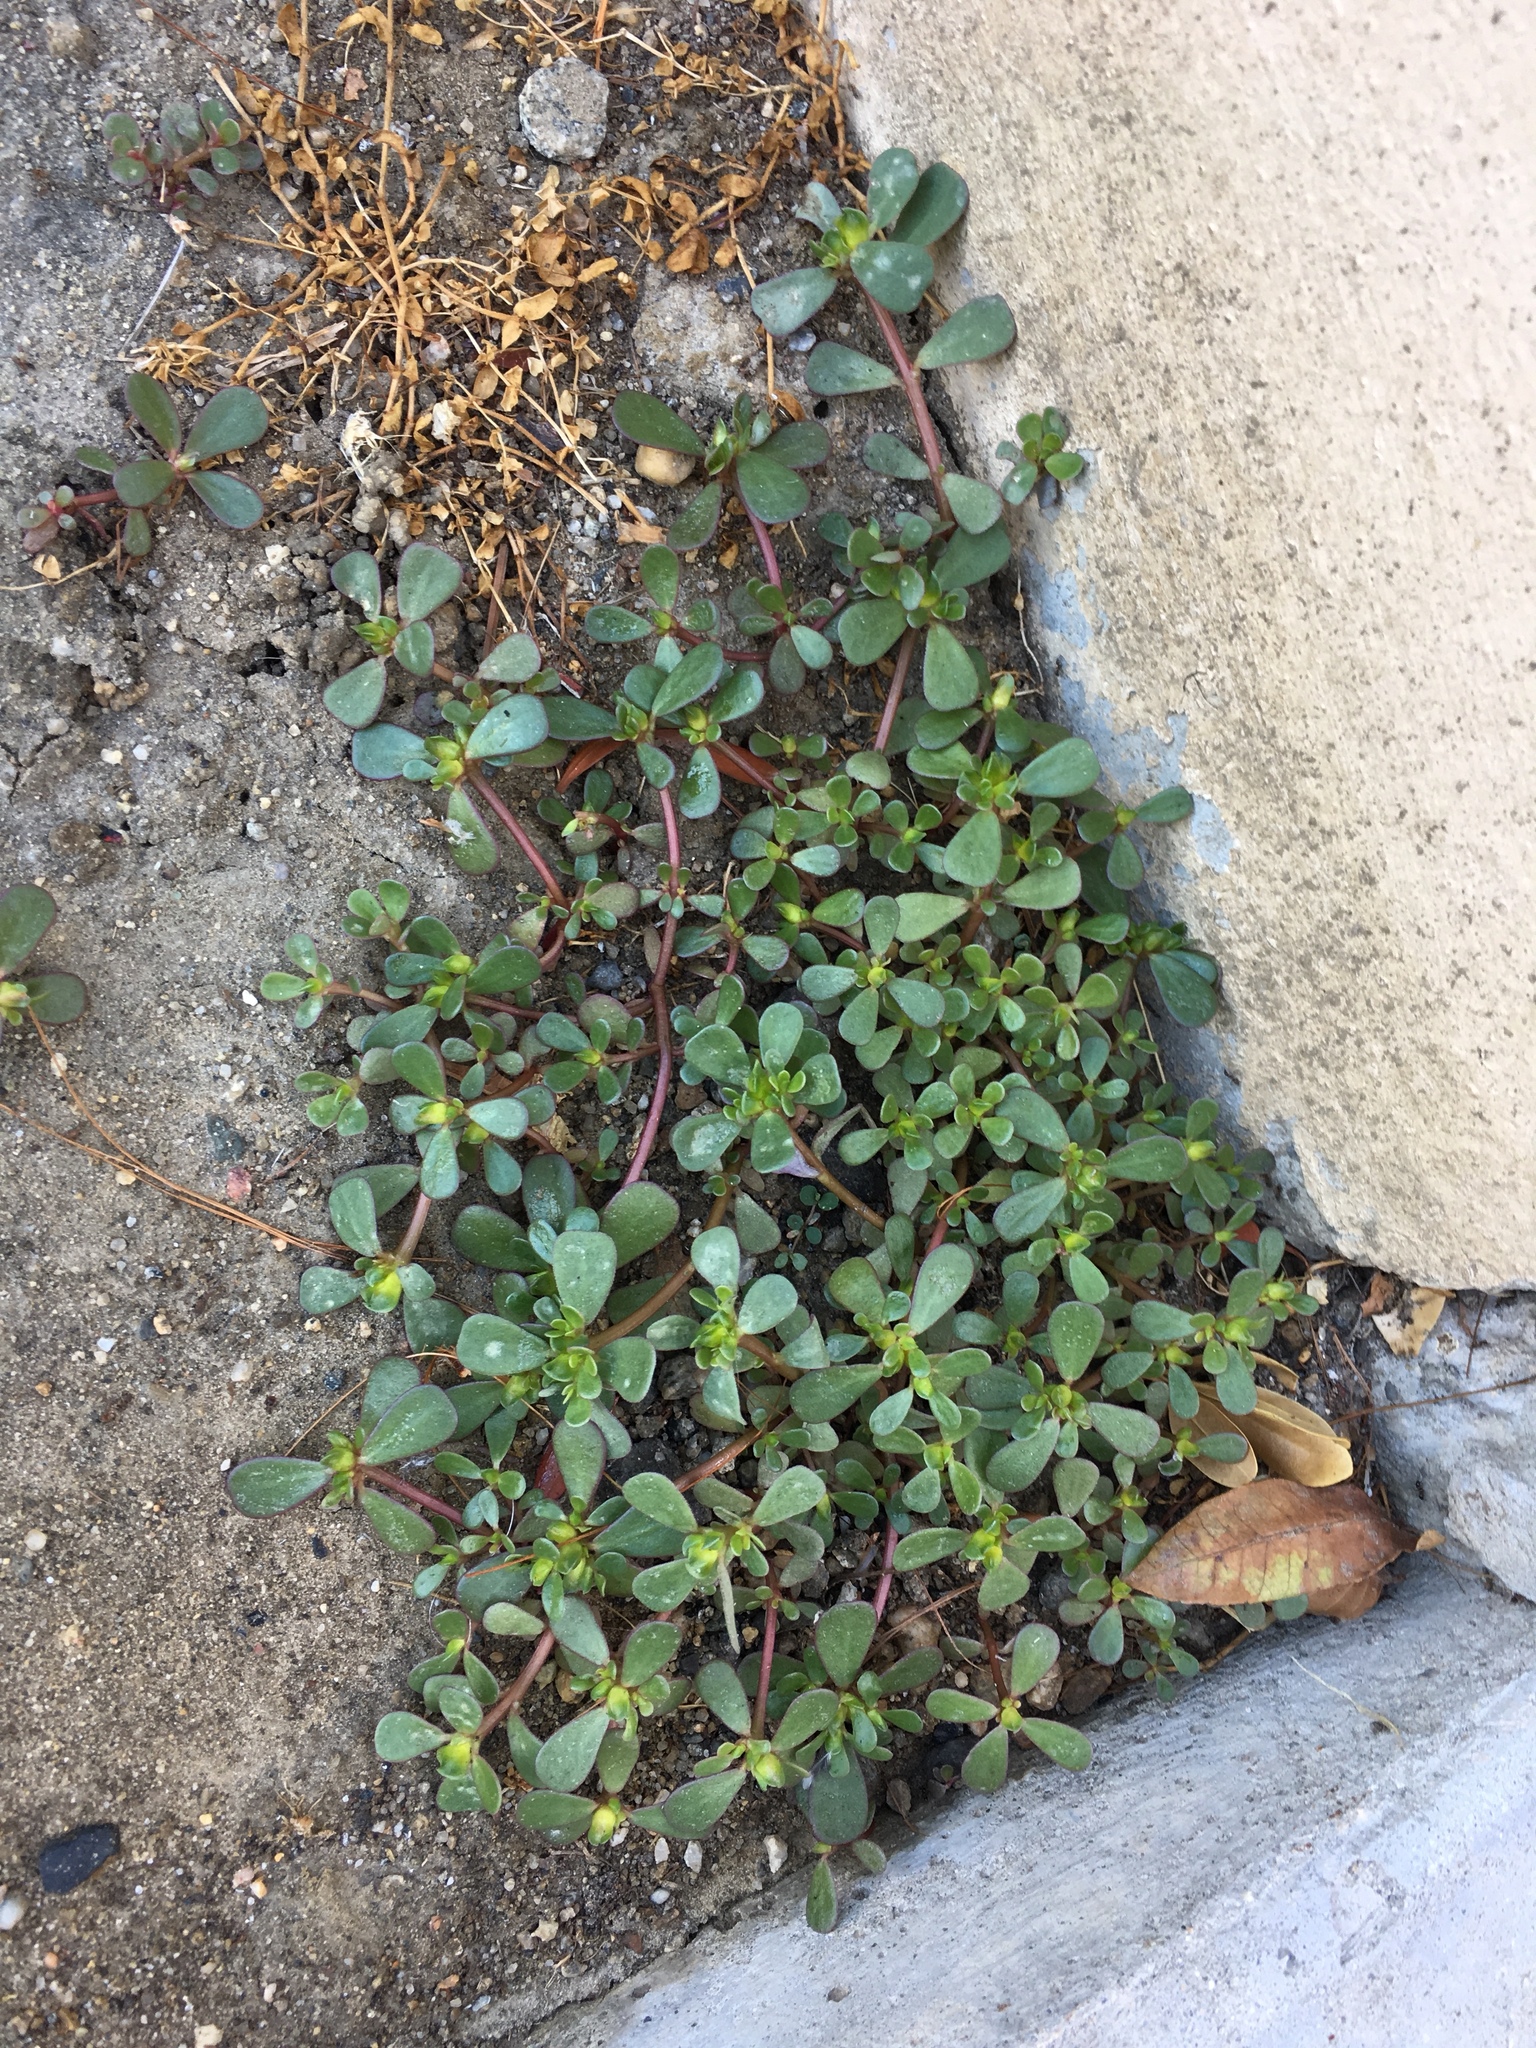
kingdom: Plantae
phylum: Tracheophyta
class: Magnoliopsida
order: Caryophyllales
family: Portulacaceae
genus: Portulaca
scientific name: Portulaca oleracea
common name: Common purslane
